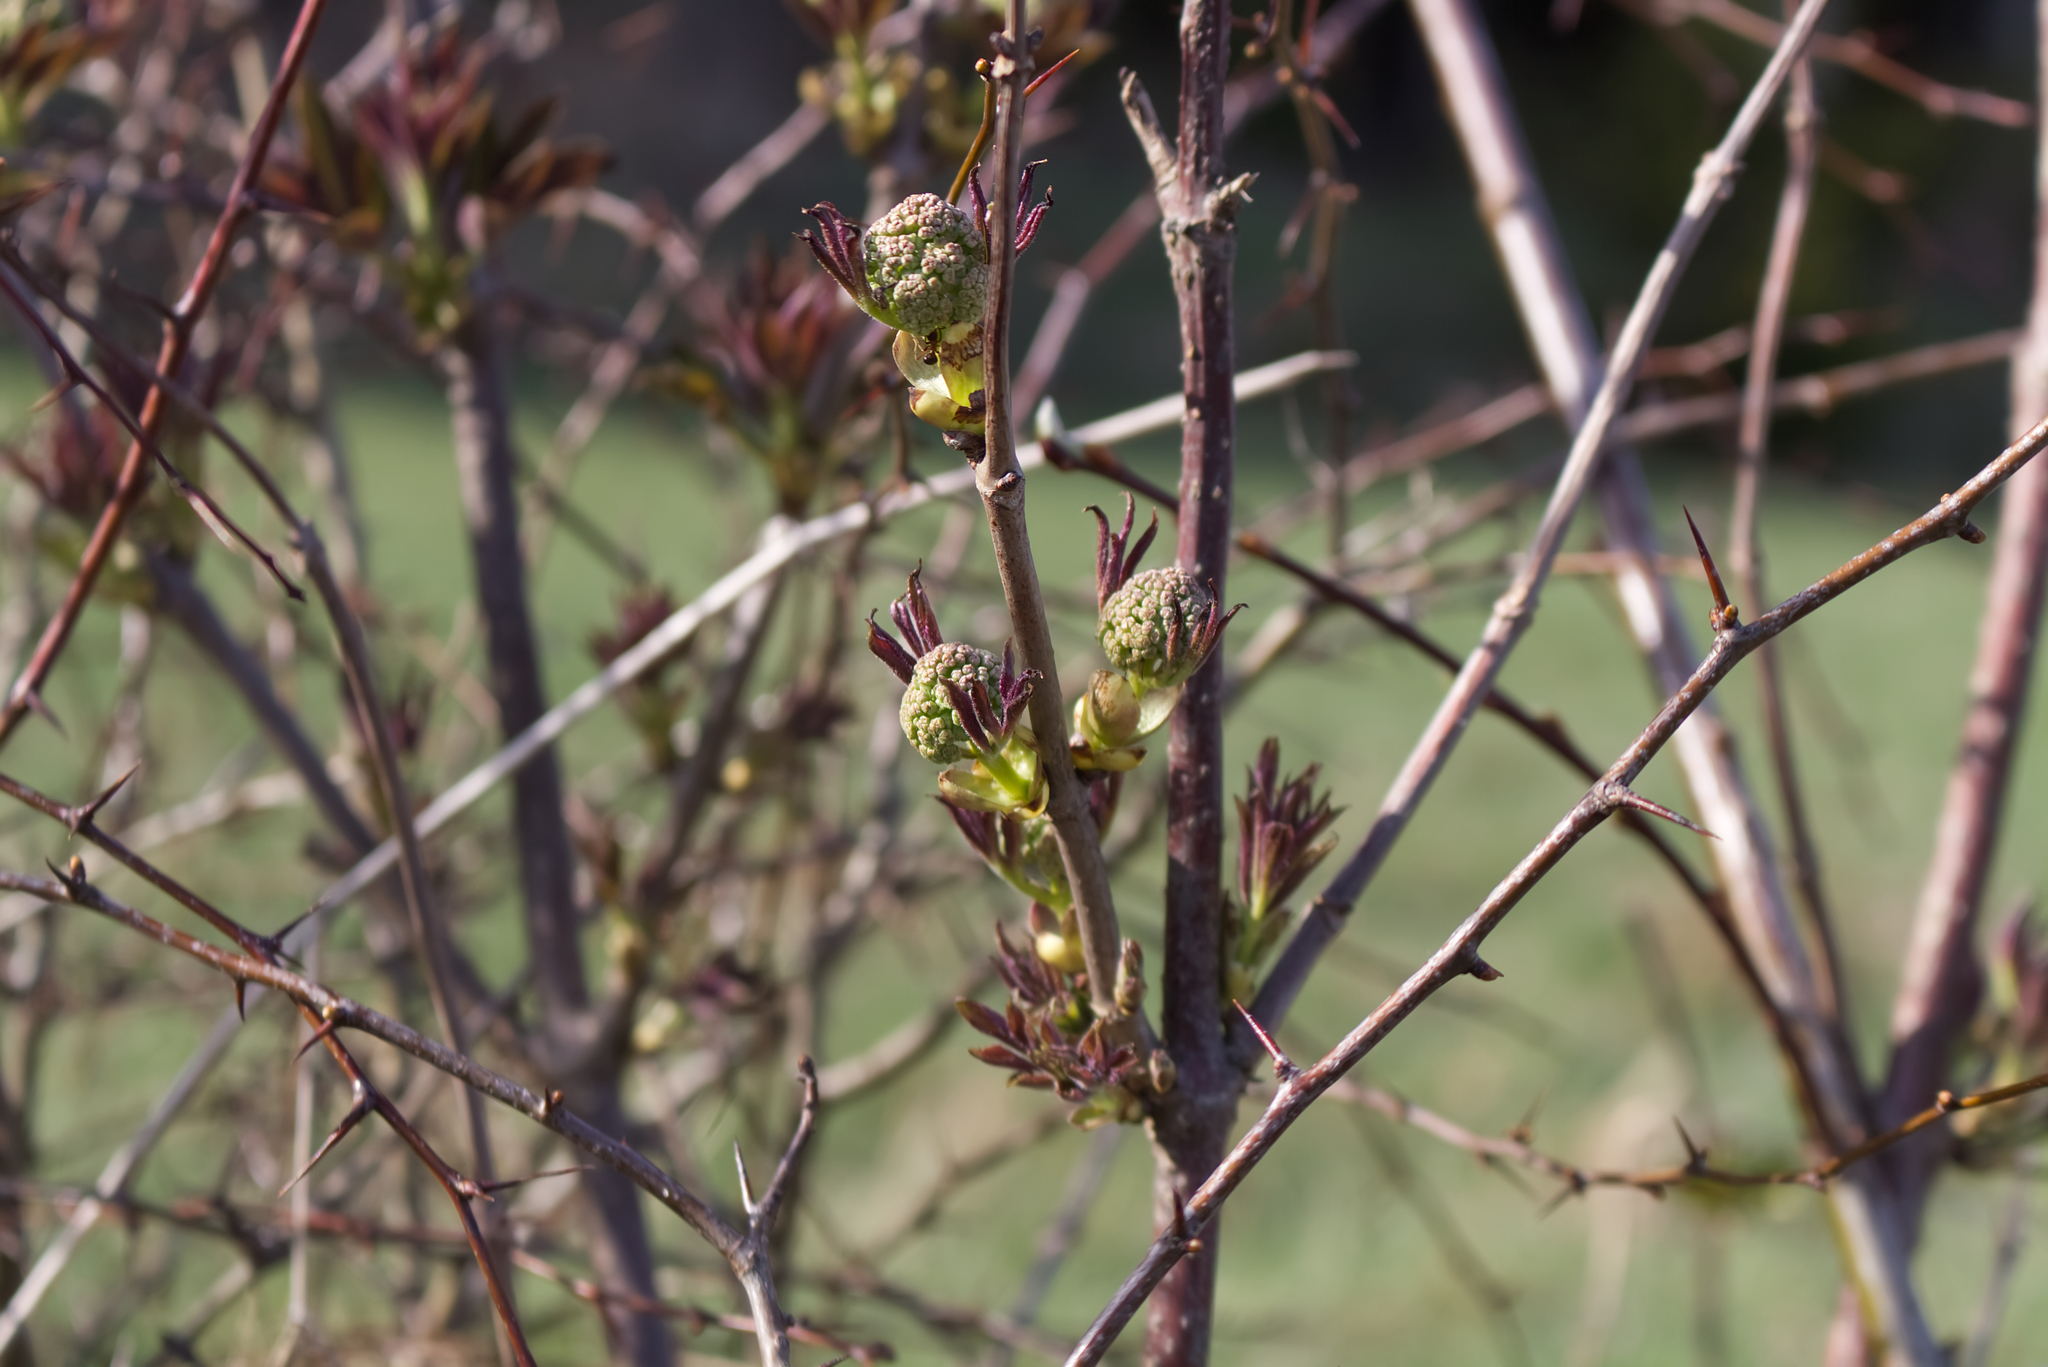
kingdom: Plantae
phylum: Tracheophyta
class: Magnoliopsida
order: Dipsacales
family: Viburnaceae
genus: Sambucus
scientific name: Sambucus racemosa
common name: Red-berried elder
